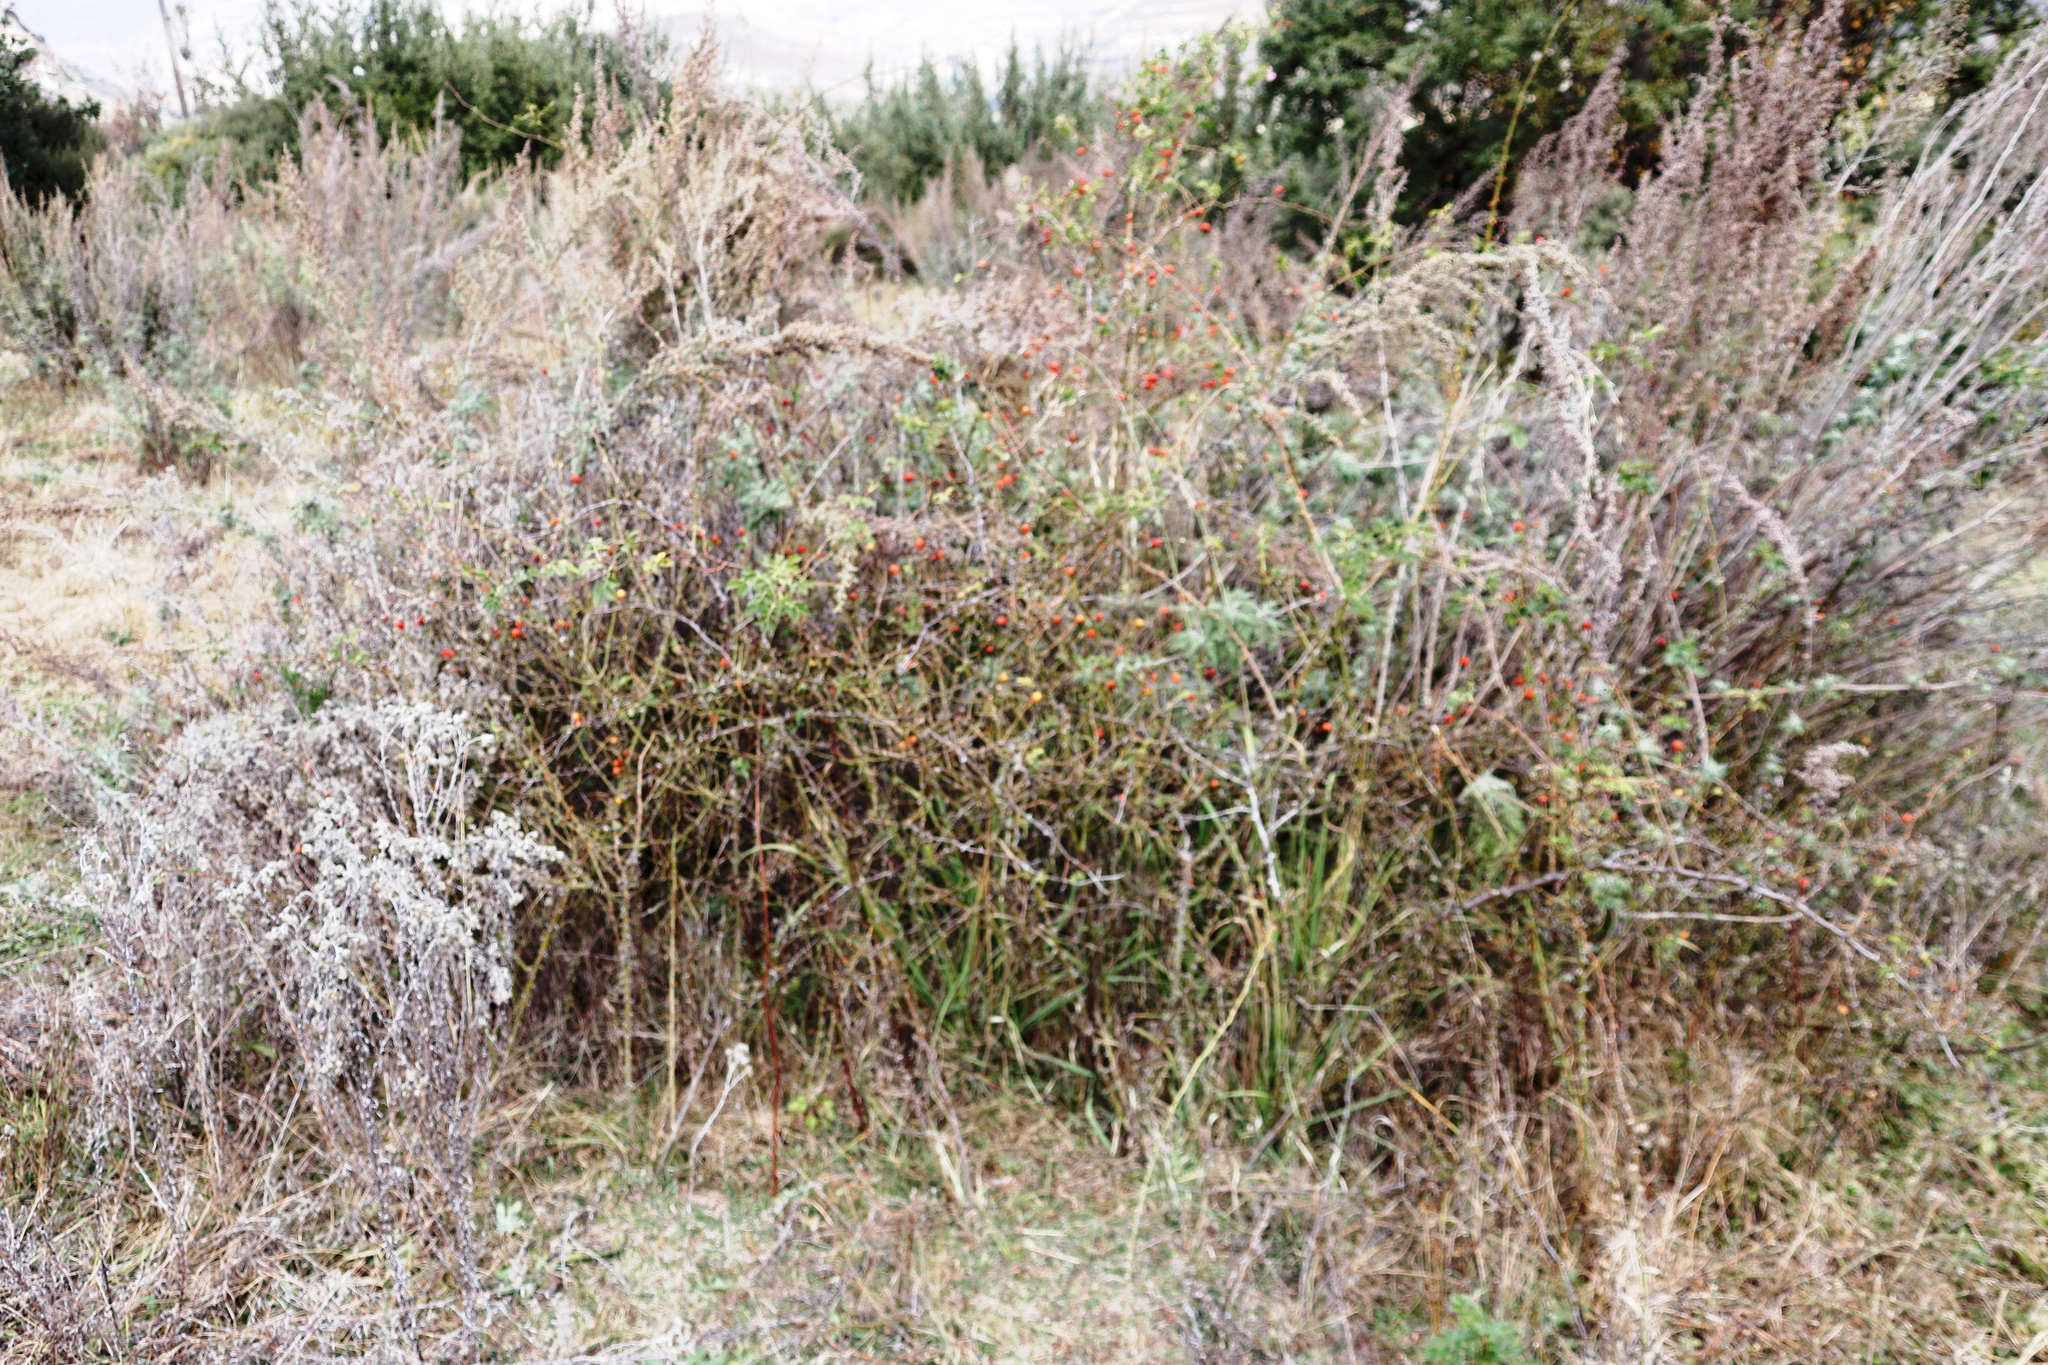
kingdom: Plantae
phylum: Tracheophyta
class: Magnoliopsida
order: Rosales
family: Rosaceae
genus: Rosa
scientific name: Rosa rubiginosa
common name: Sweet-briar
